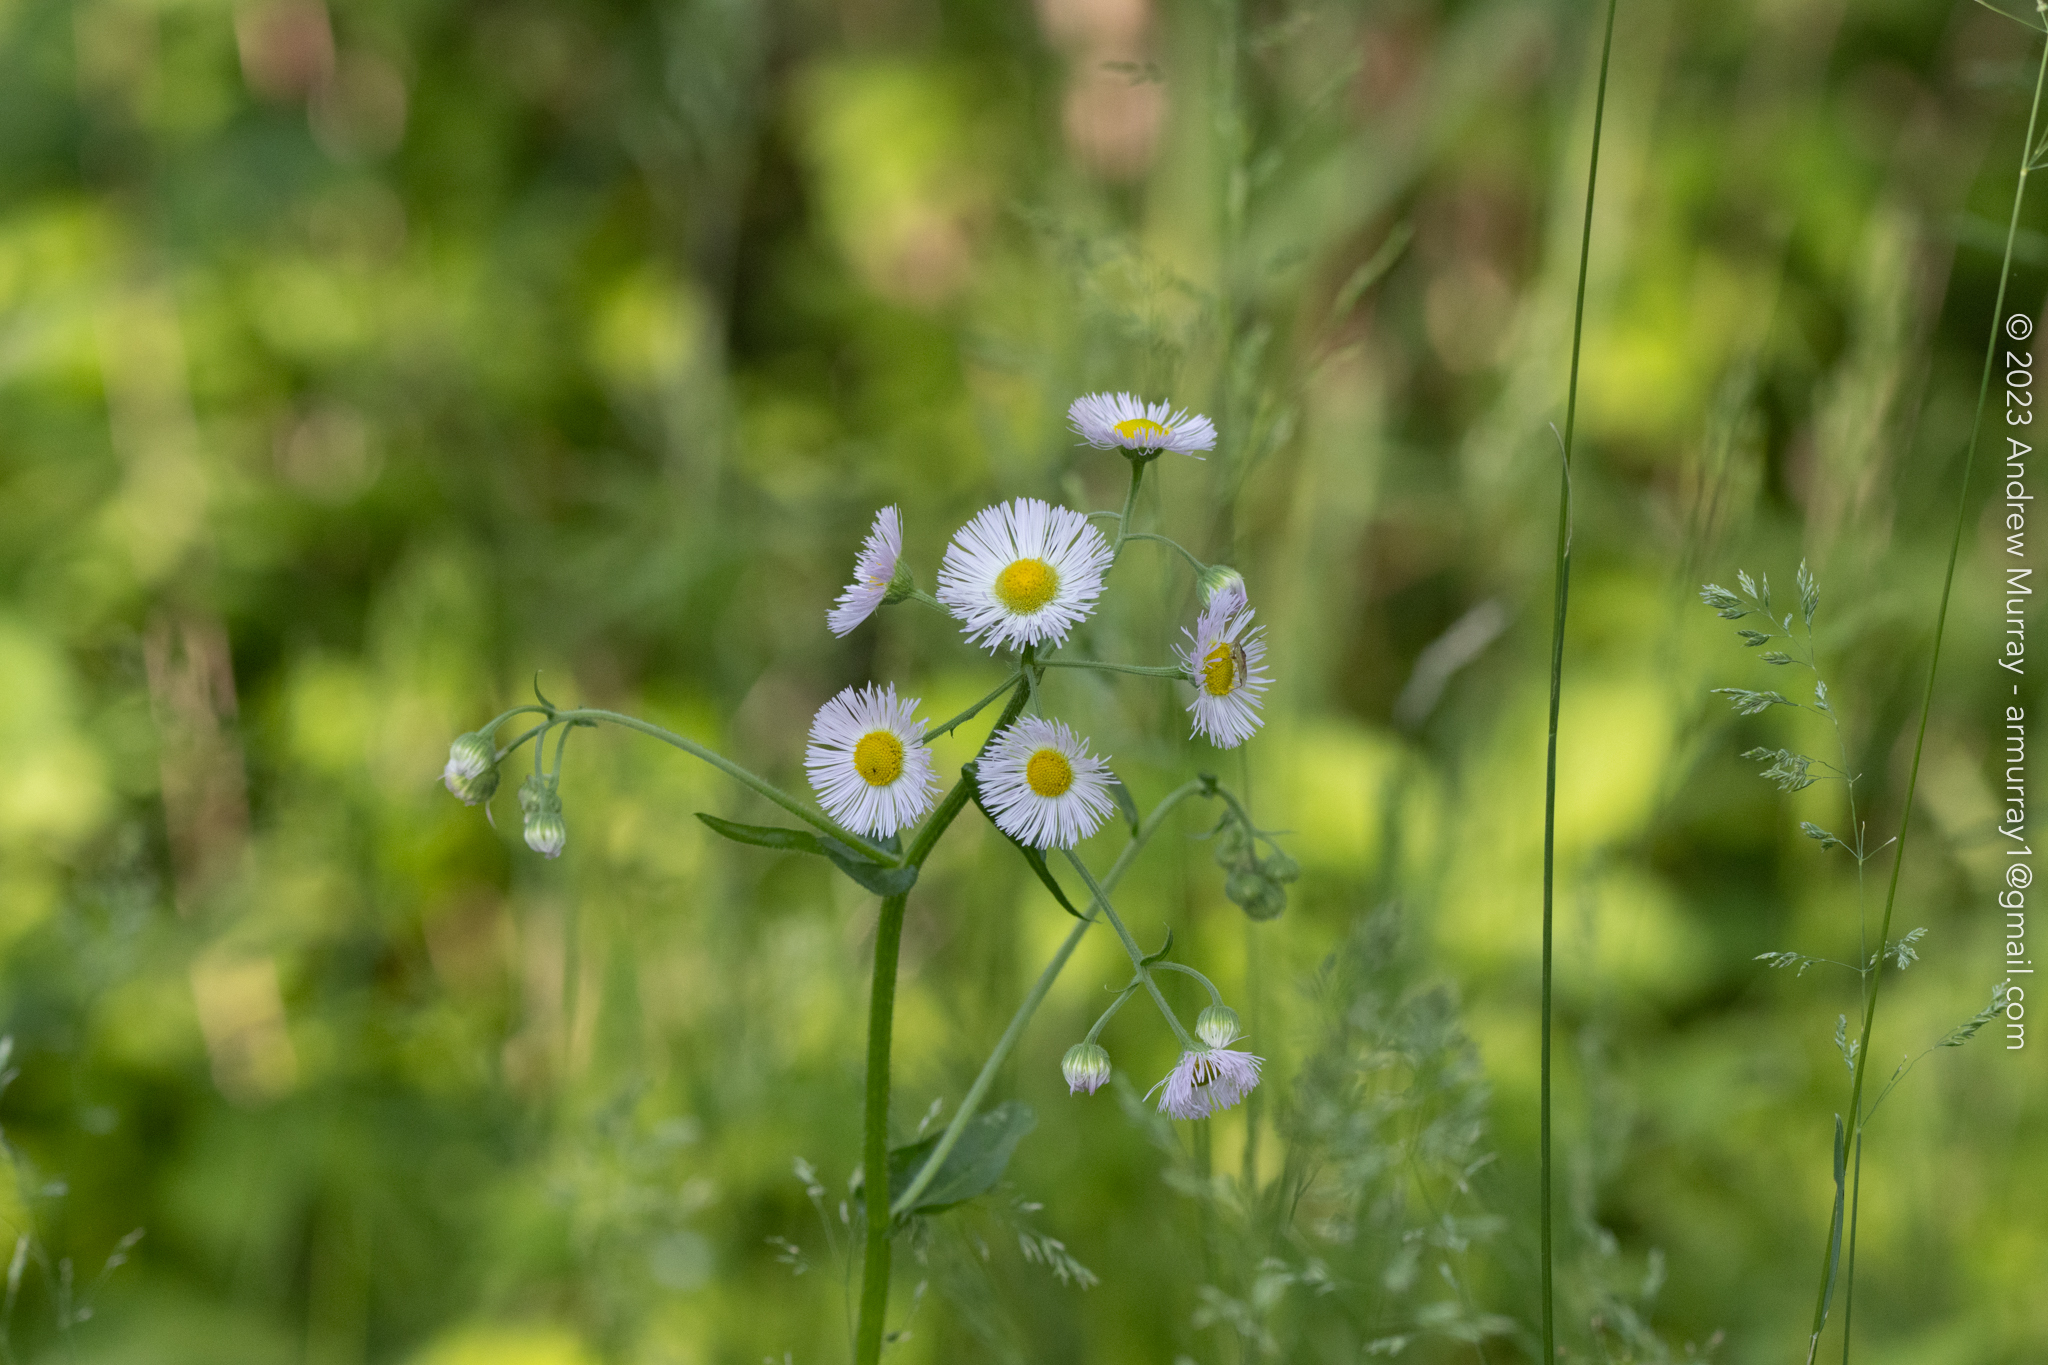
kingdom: Plantae
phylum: Tracheophyta
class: Magnoliopsida
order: Asterales
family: Asteraceae
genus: Erigeron
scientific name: Erigeron philadelphicus
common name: Robin's-plantain
